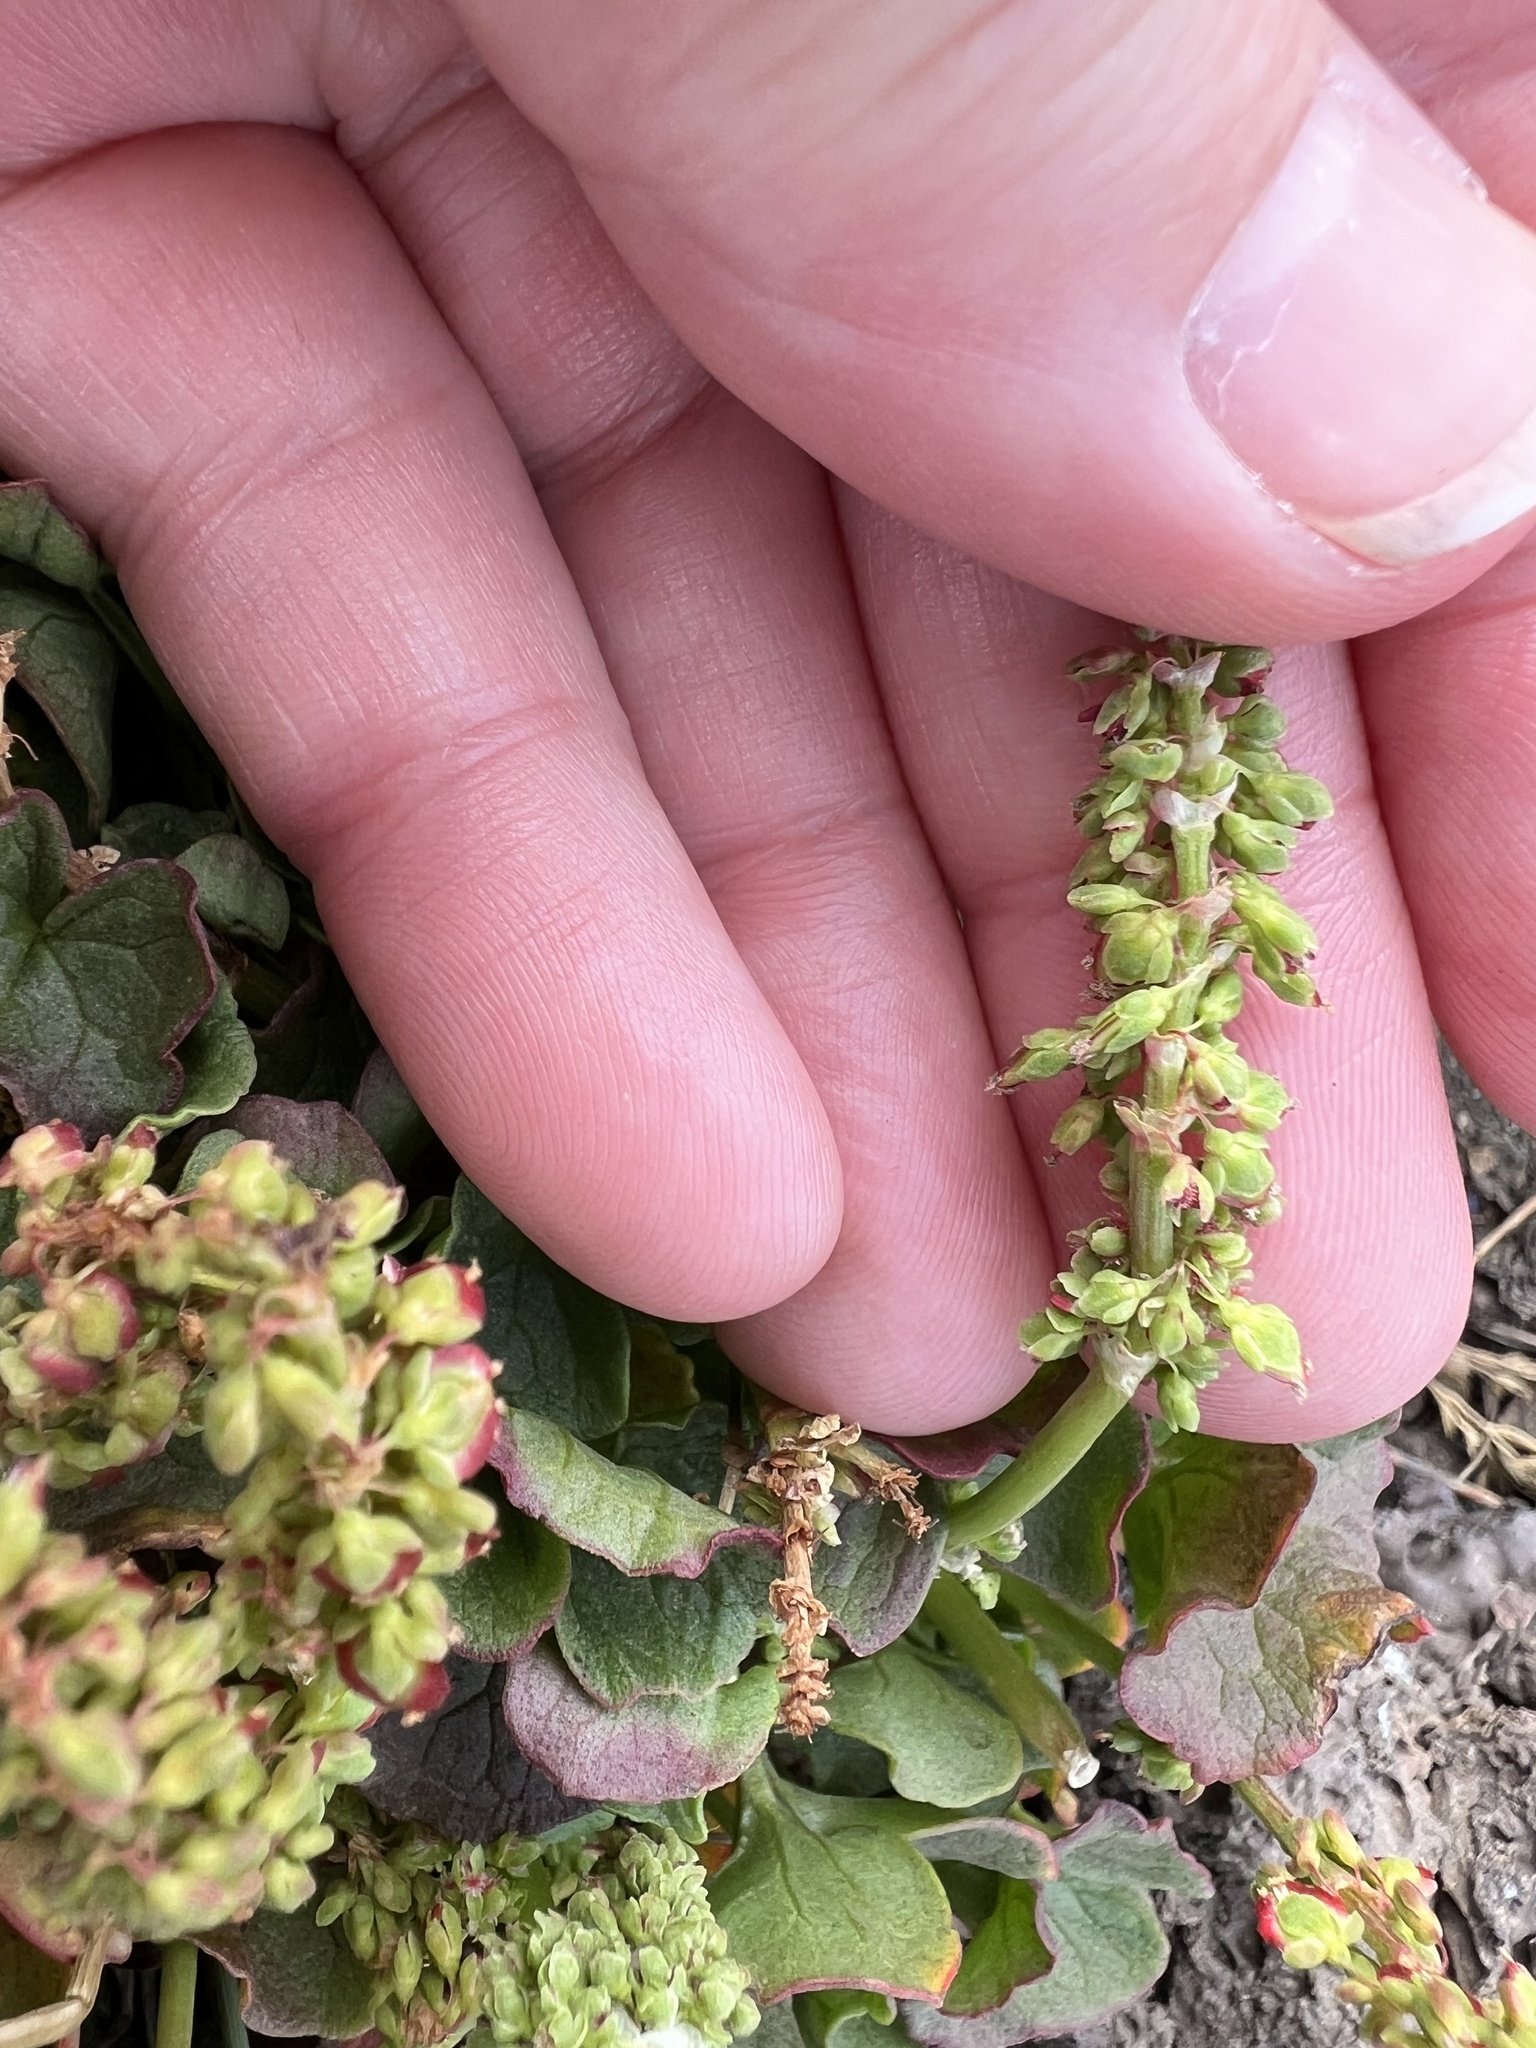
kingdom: Plantae
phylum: Tracheophyta
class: Magnoliopsida
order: Caryophyllales
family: Polygonaceae
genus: Oxyria
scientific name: Oxyria digyna
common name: Alpine mountain-sorrel
